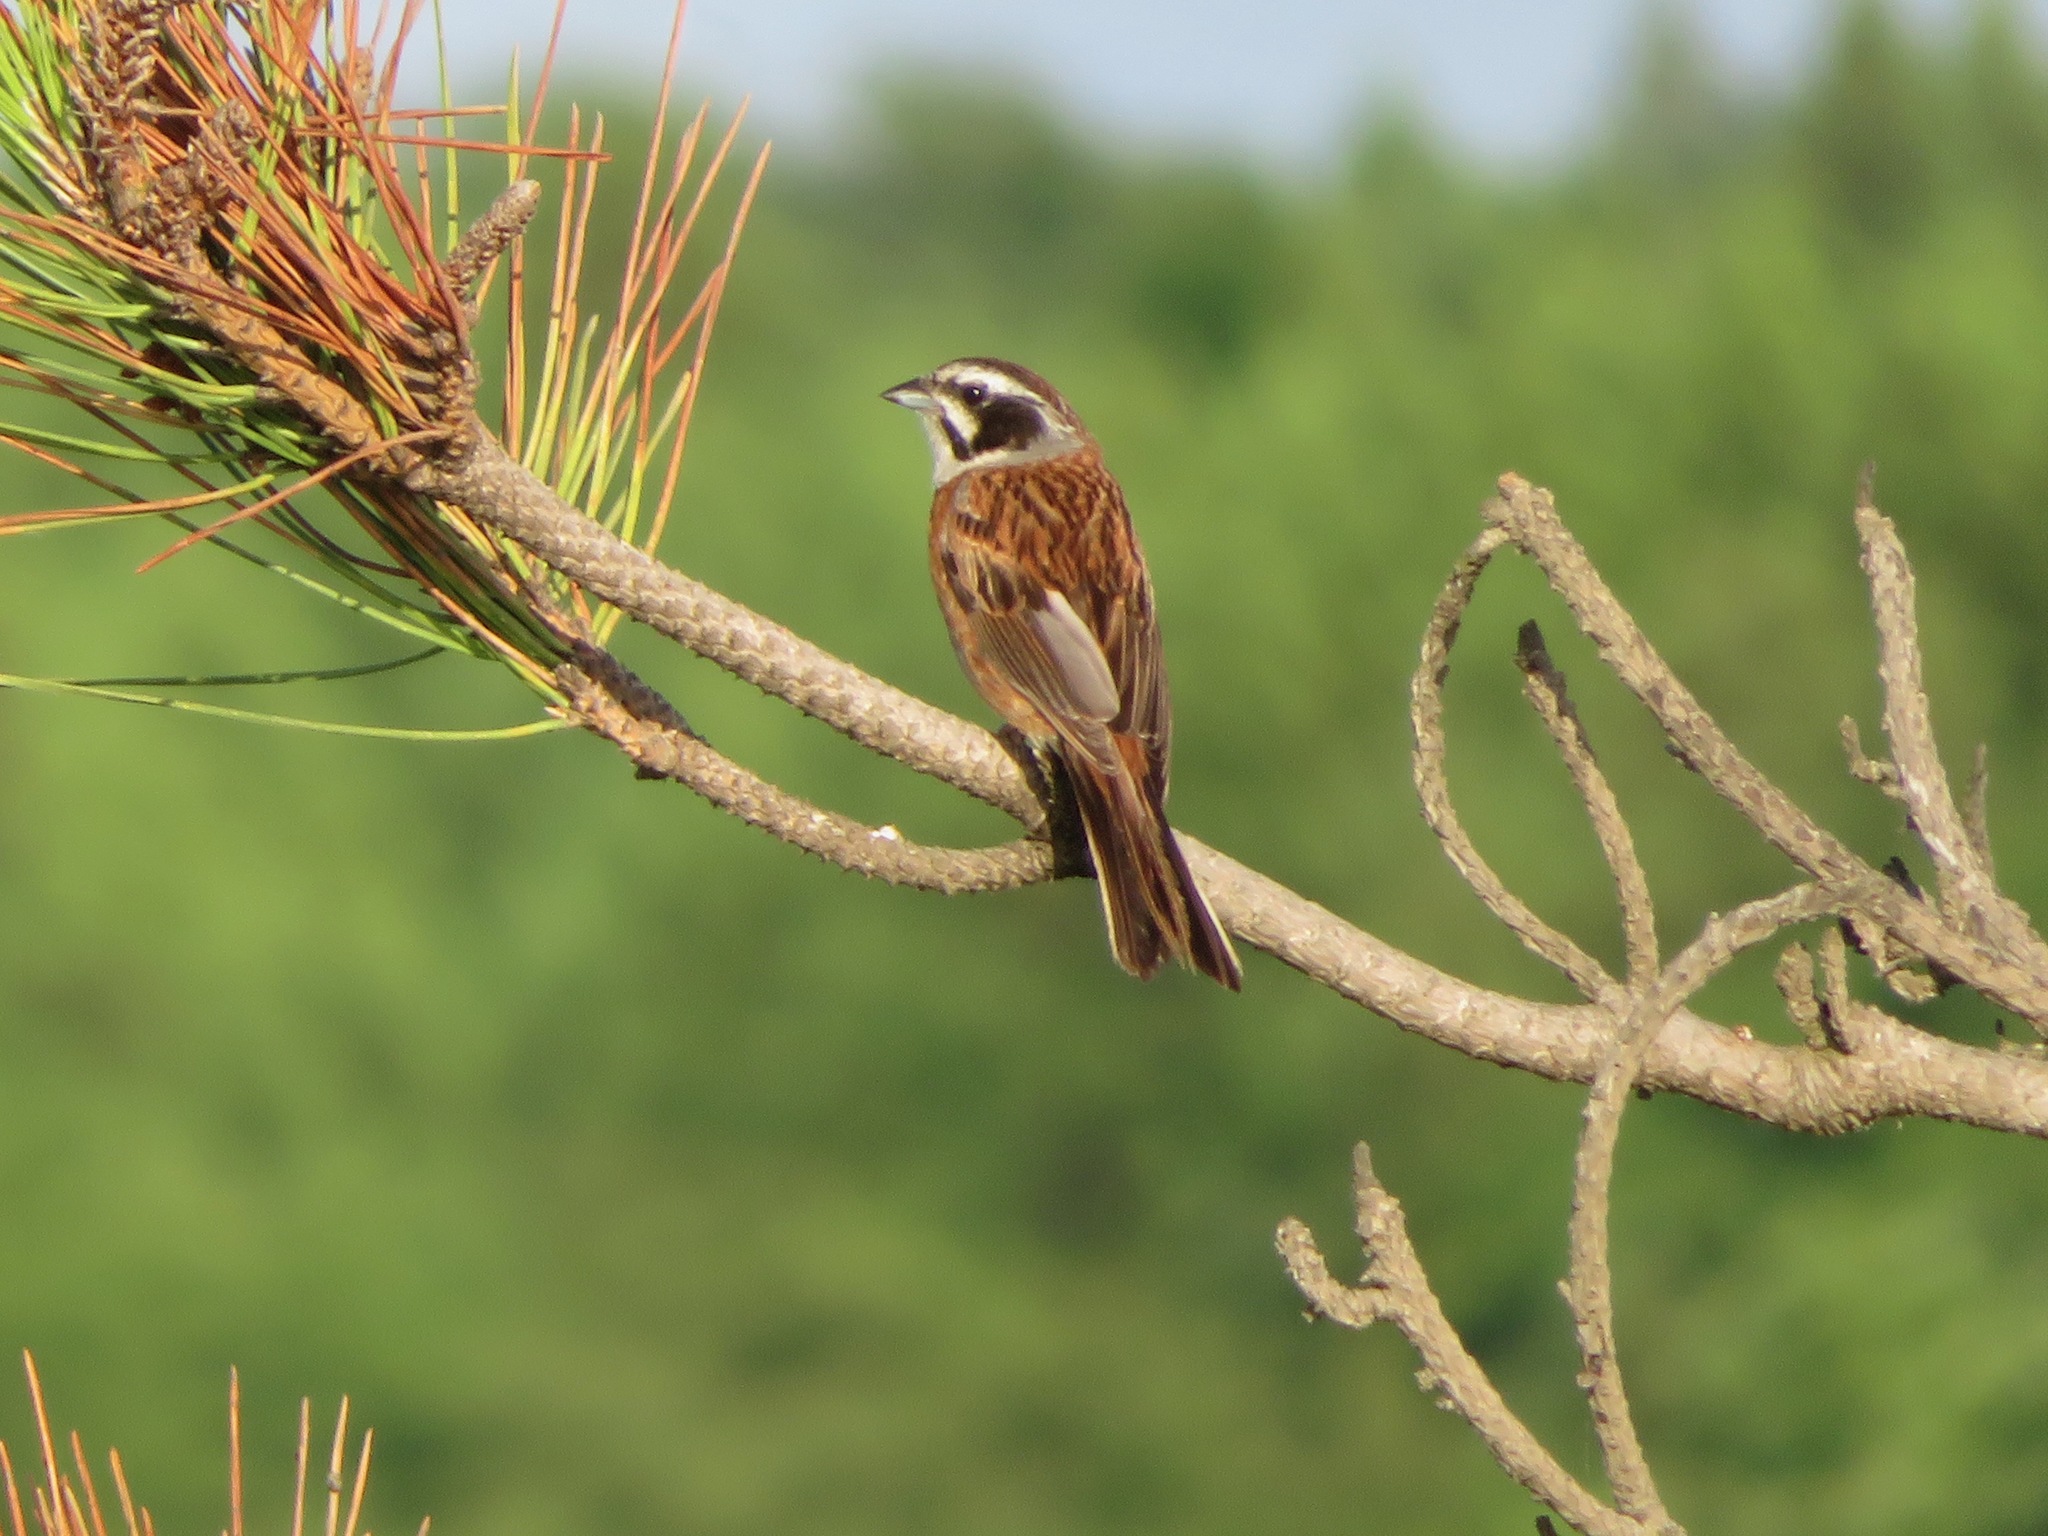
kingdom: Animalia
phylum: Chordata
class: Aves
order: Passeriformes
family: Emberizidae
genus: Emberiza
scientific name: Emberiza cioides
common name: Meadow bunting
